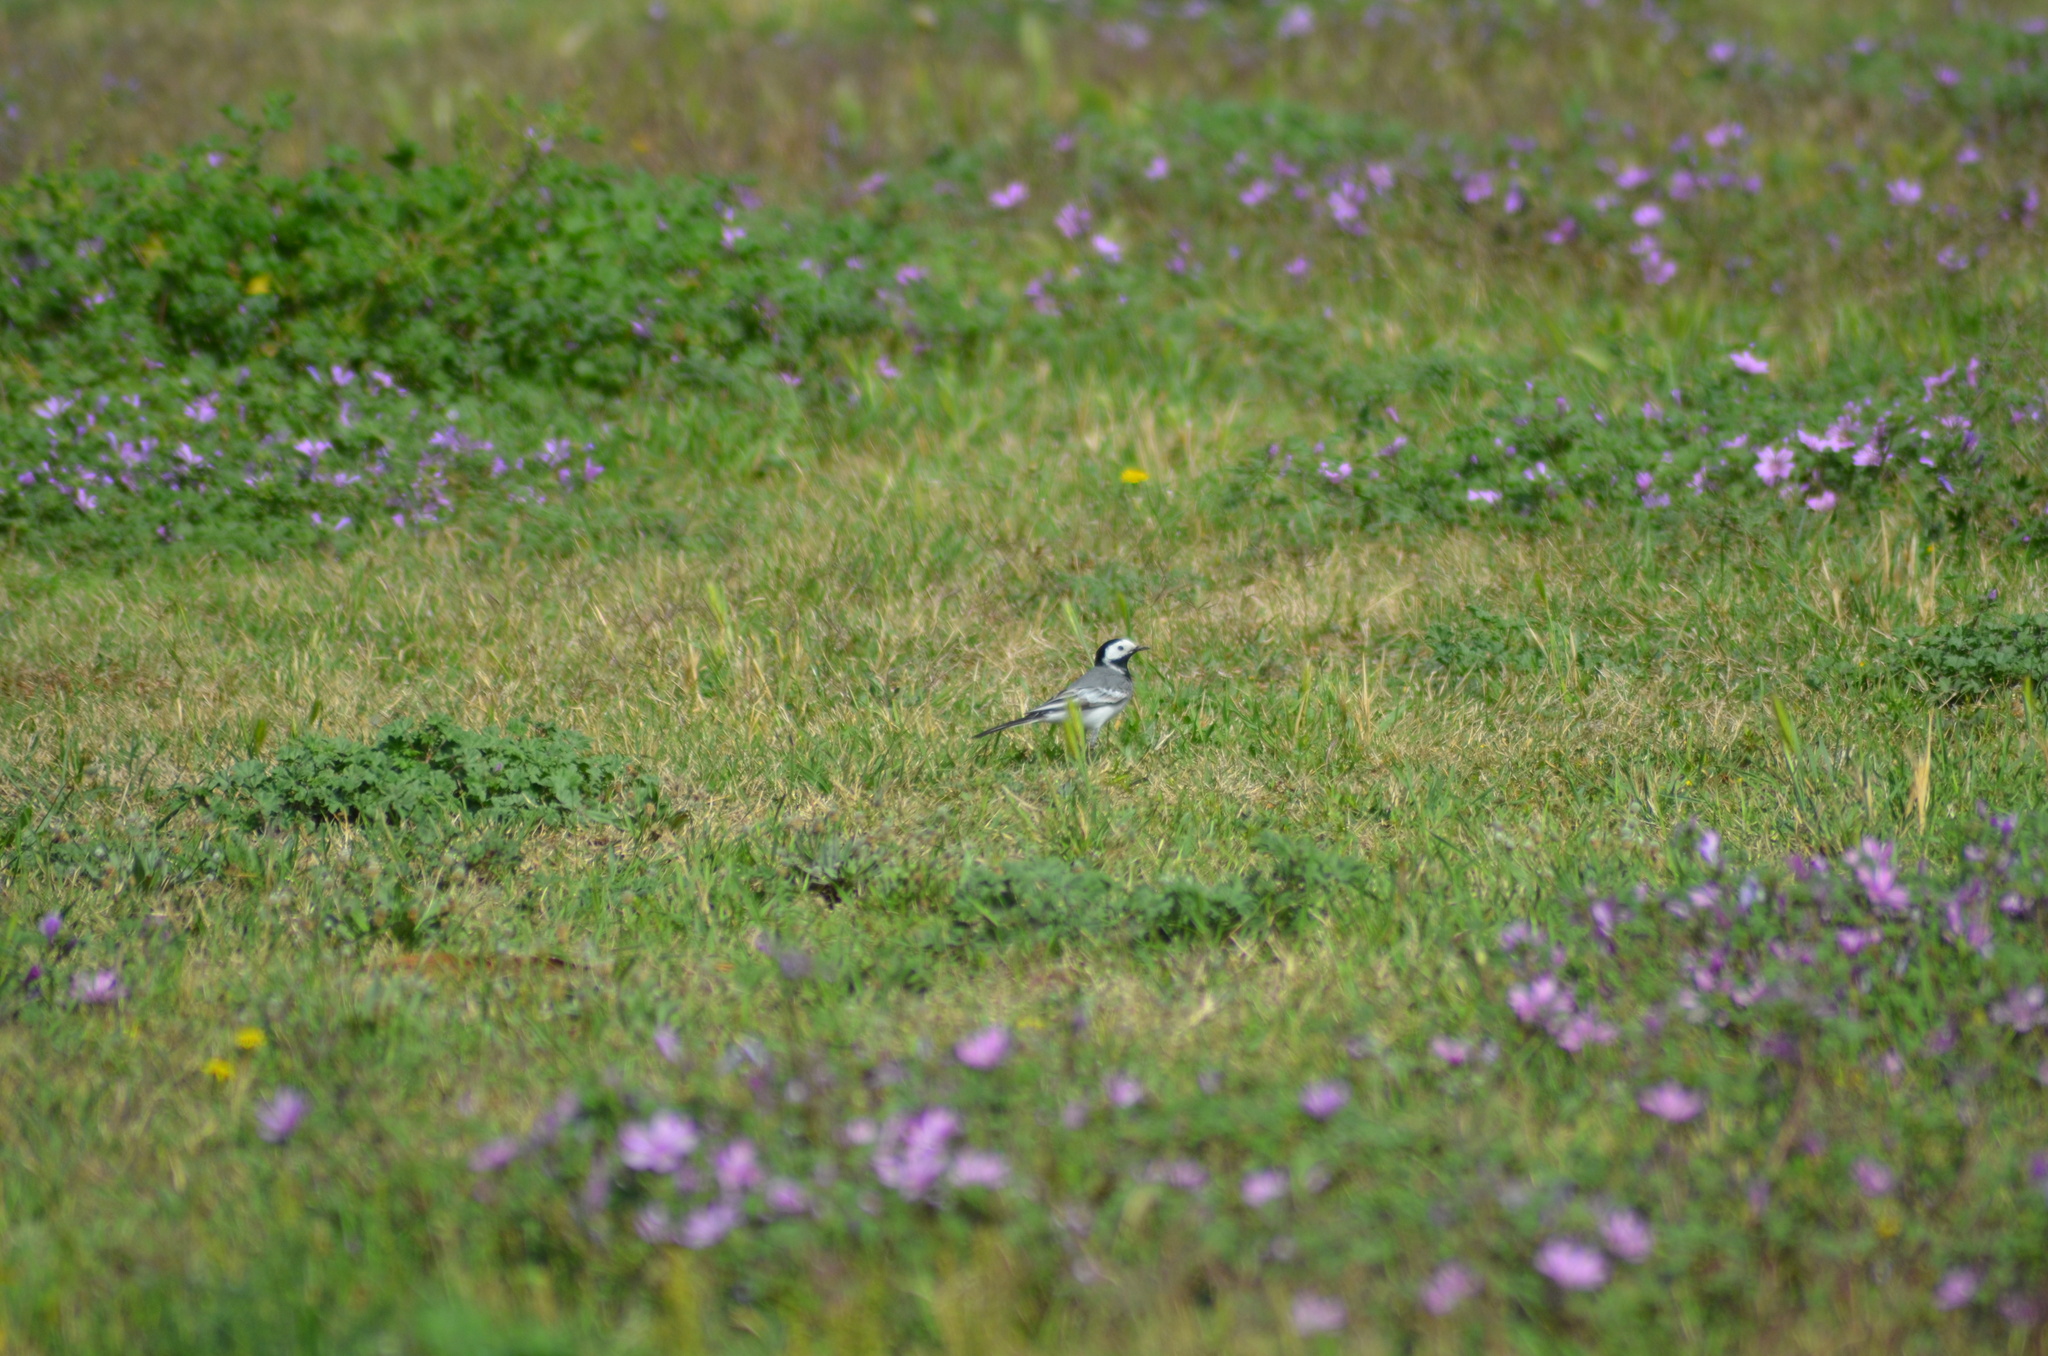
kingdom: Animalia
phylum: Chordata
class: Aves
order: Passeriformes
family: Motacillidae
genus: Motacilla
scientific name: Motacilla alba
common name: White wagtail
